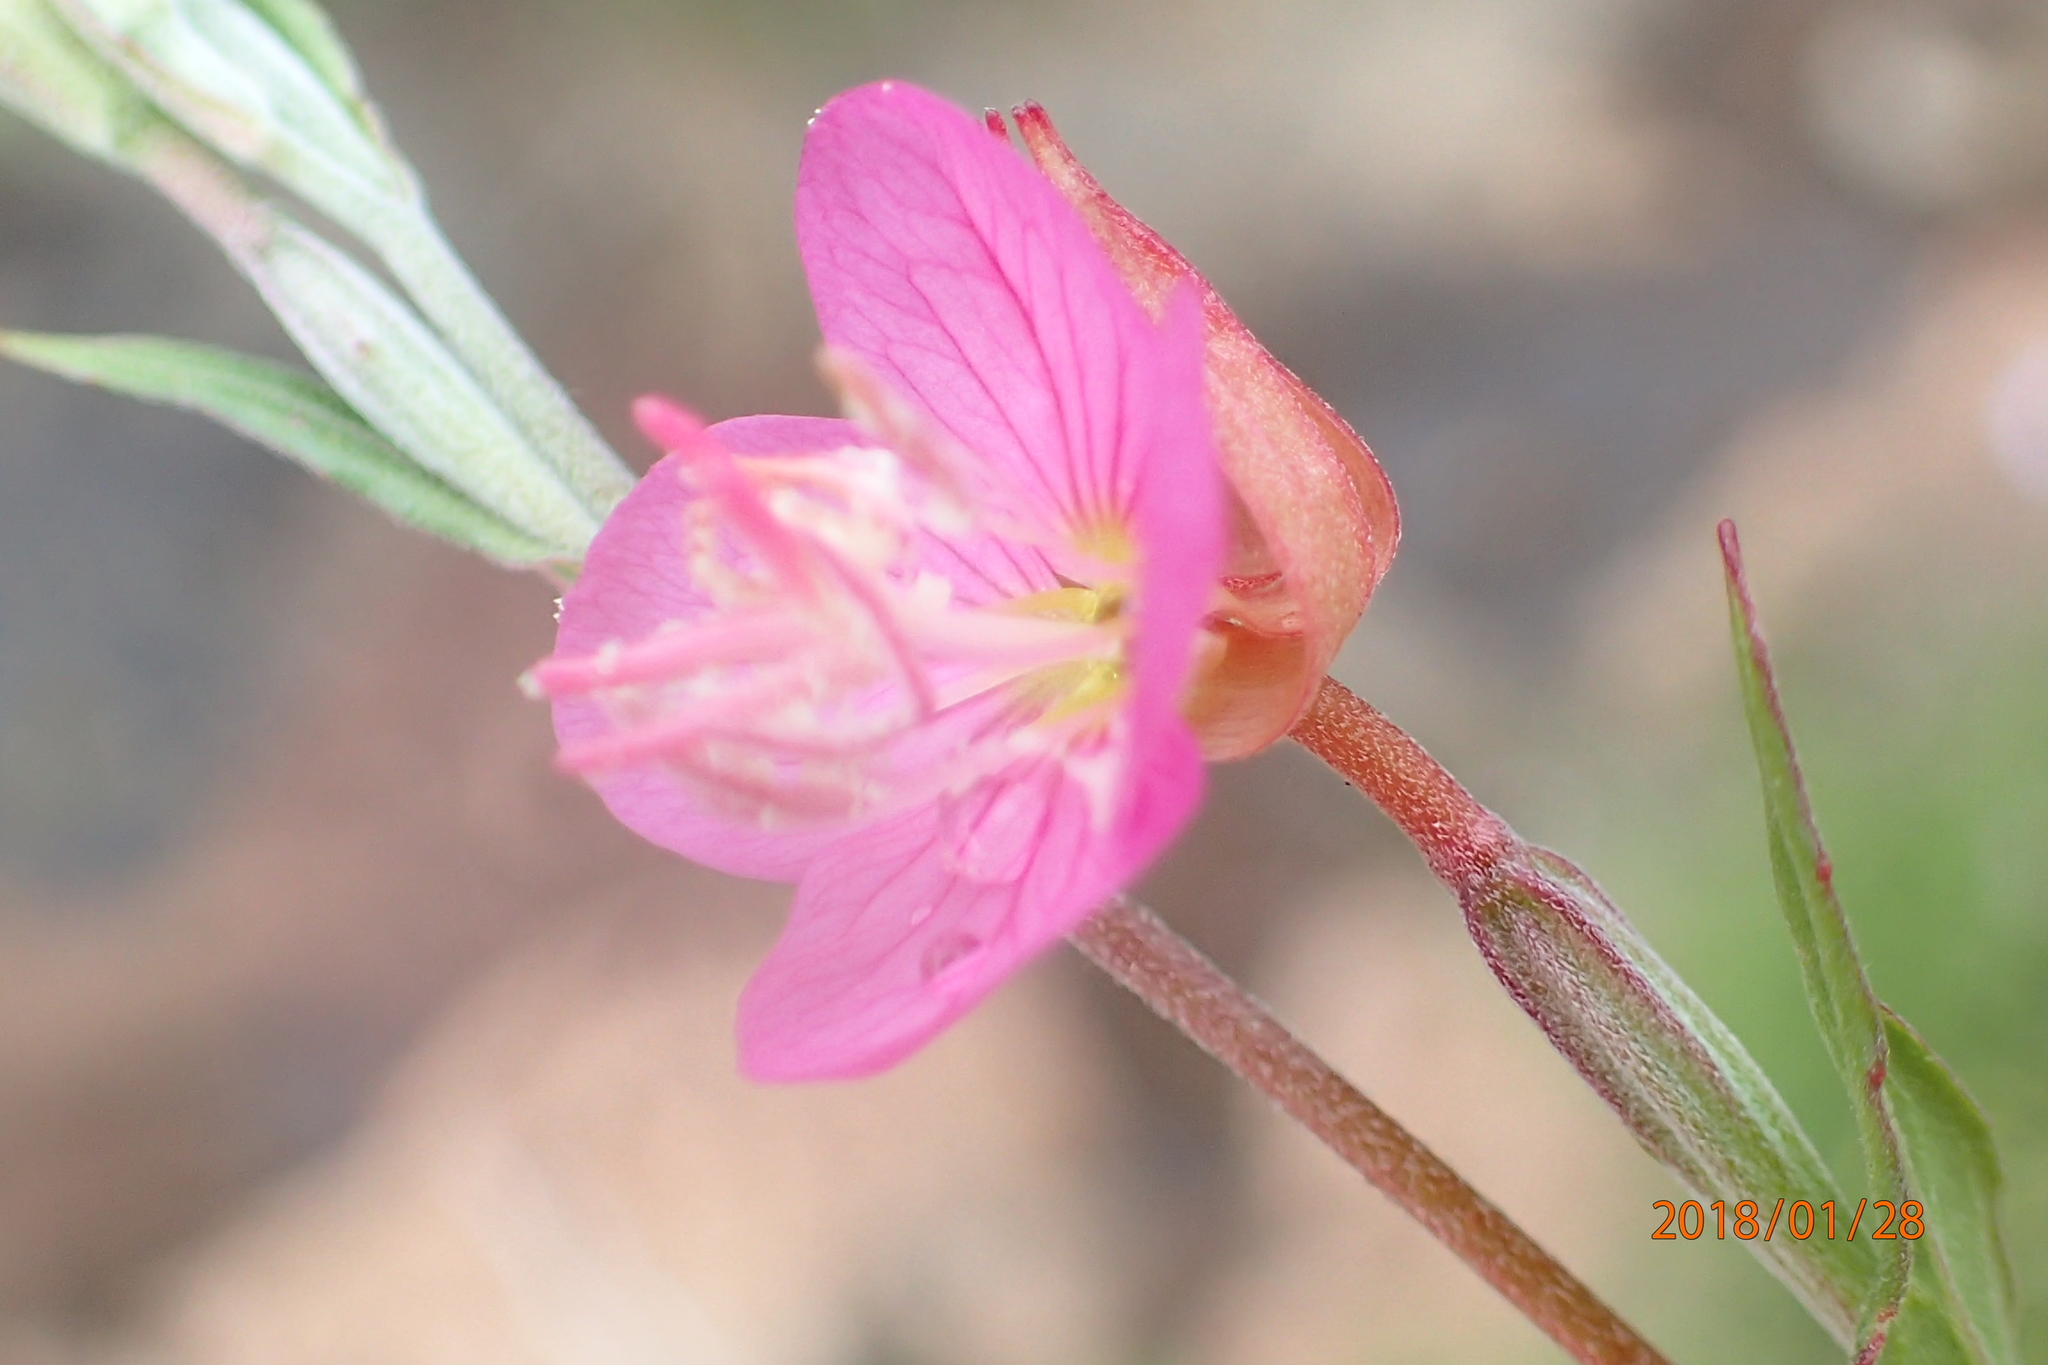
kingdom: Plantae
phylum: Tracheophyta
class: Magnoliopsida
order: Myrtales
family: Onagraceae
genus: Oenothera
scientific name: Oenothera rosea
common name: Rosy evening-primrose
